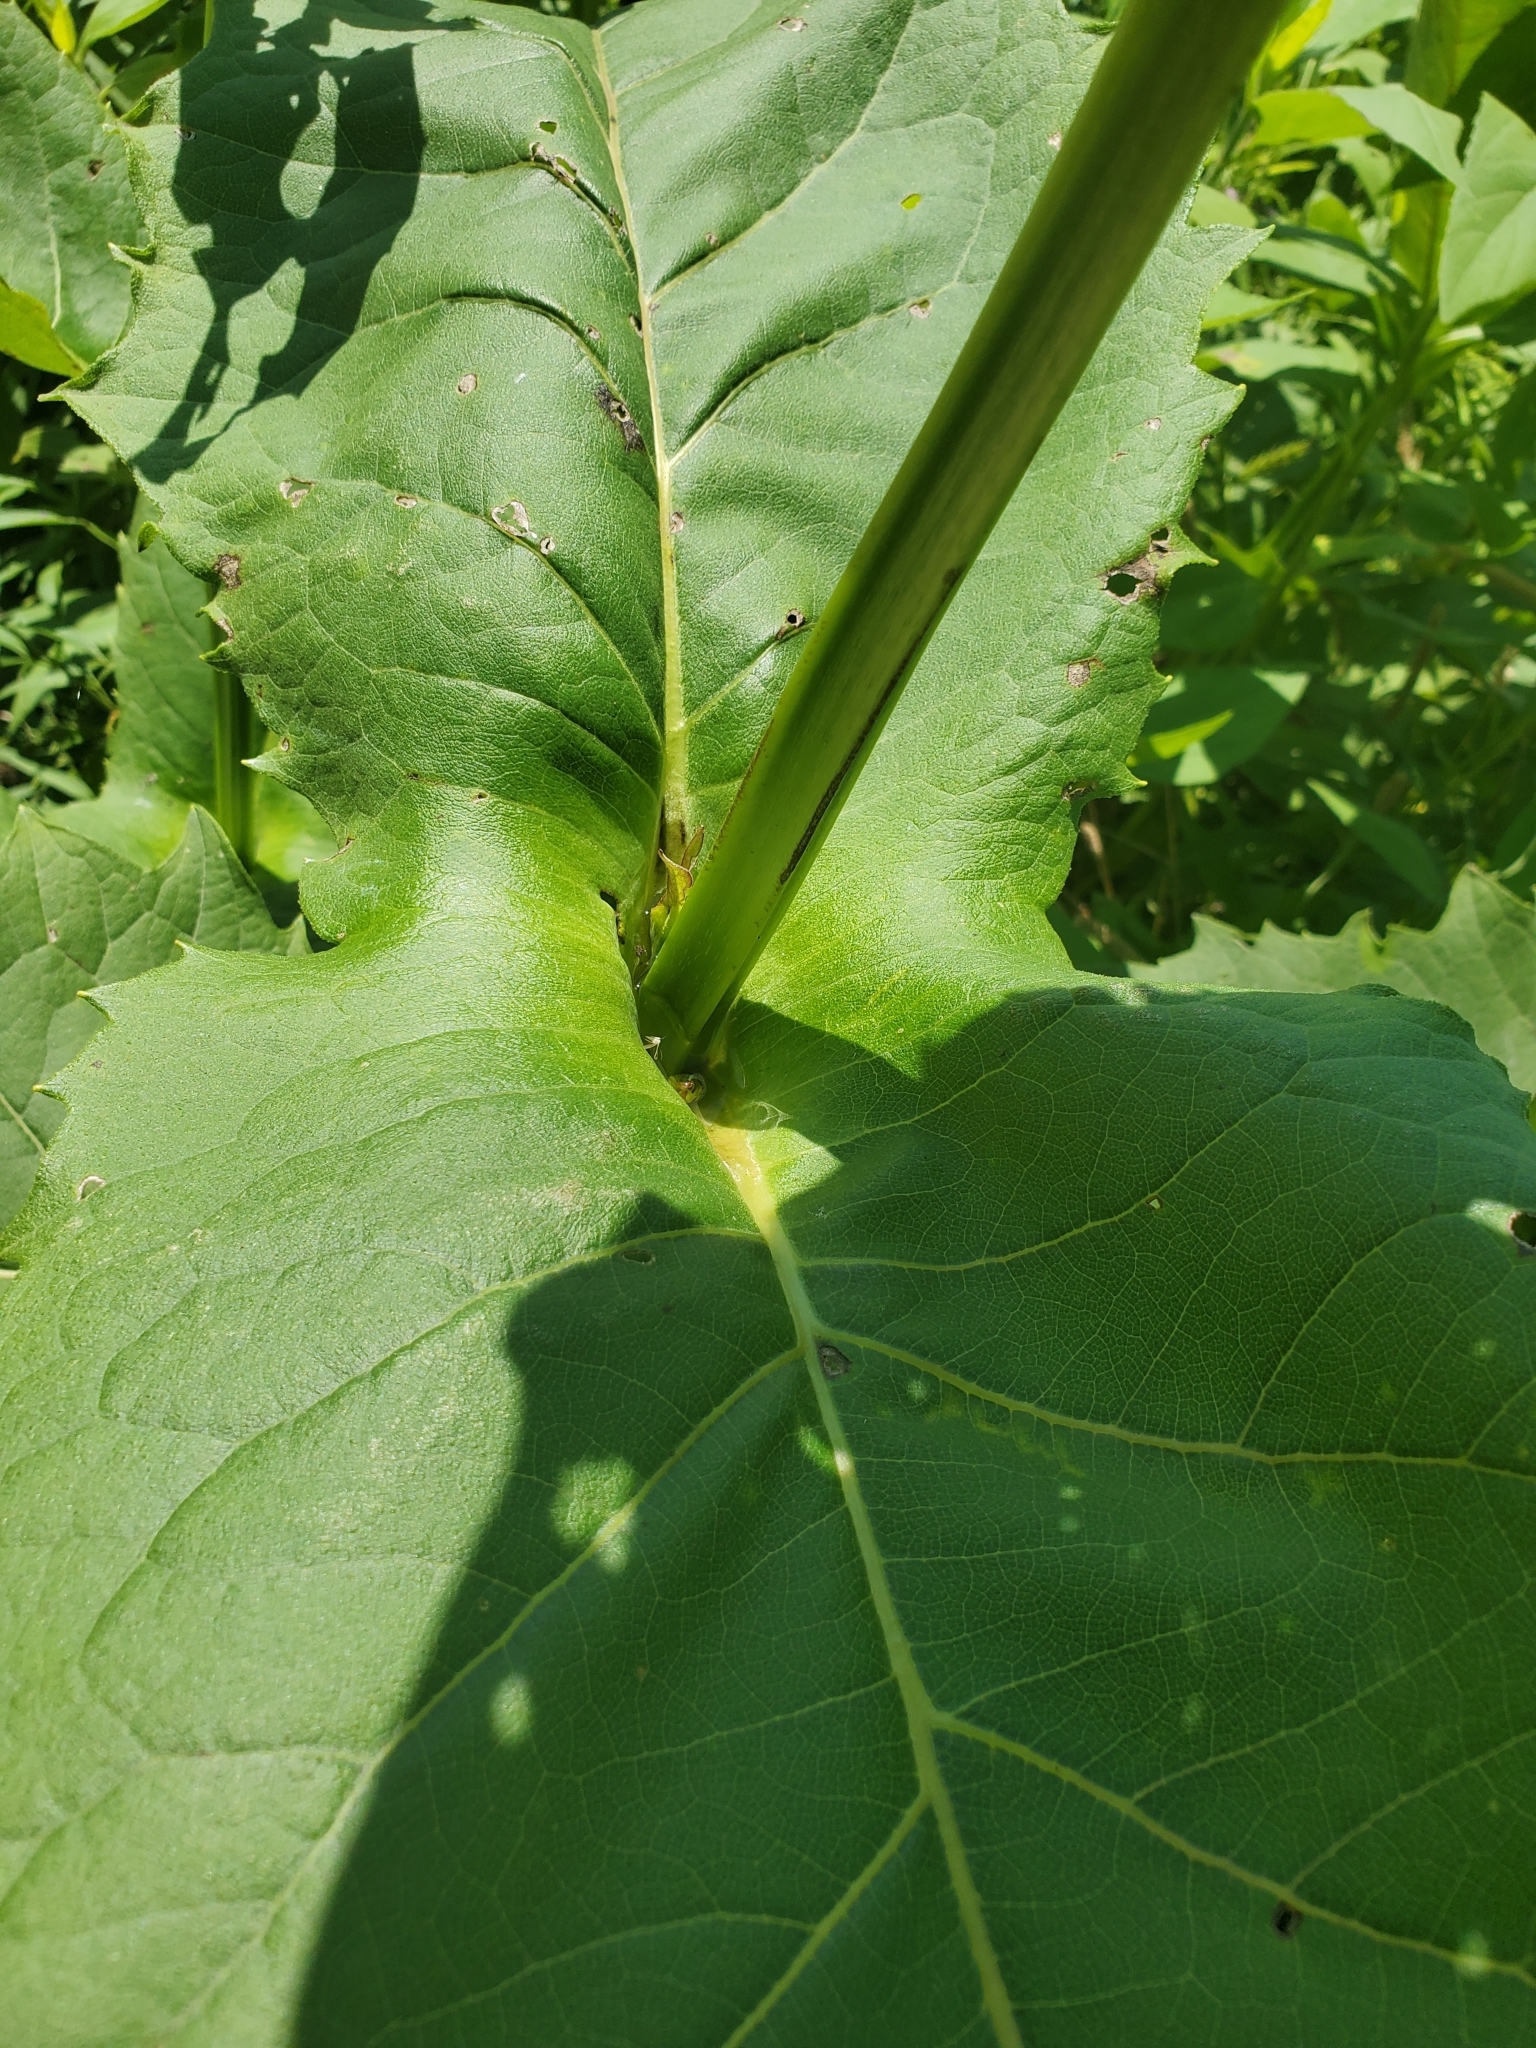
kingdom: Plantae
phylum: Tracheophyta
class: Magnoliopsida
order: Asterales
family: Asteraceae
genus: Silphium
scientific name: Silphium perfoliatum
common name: Cup-plant
